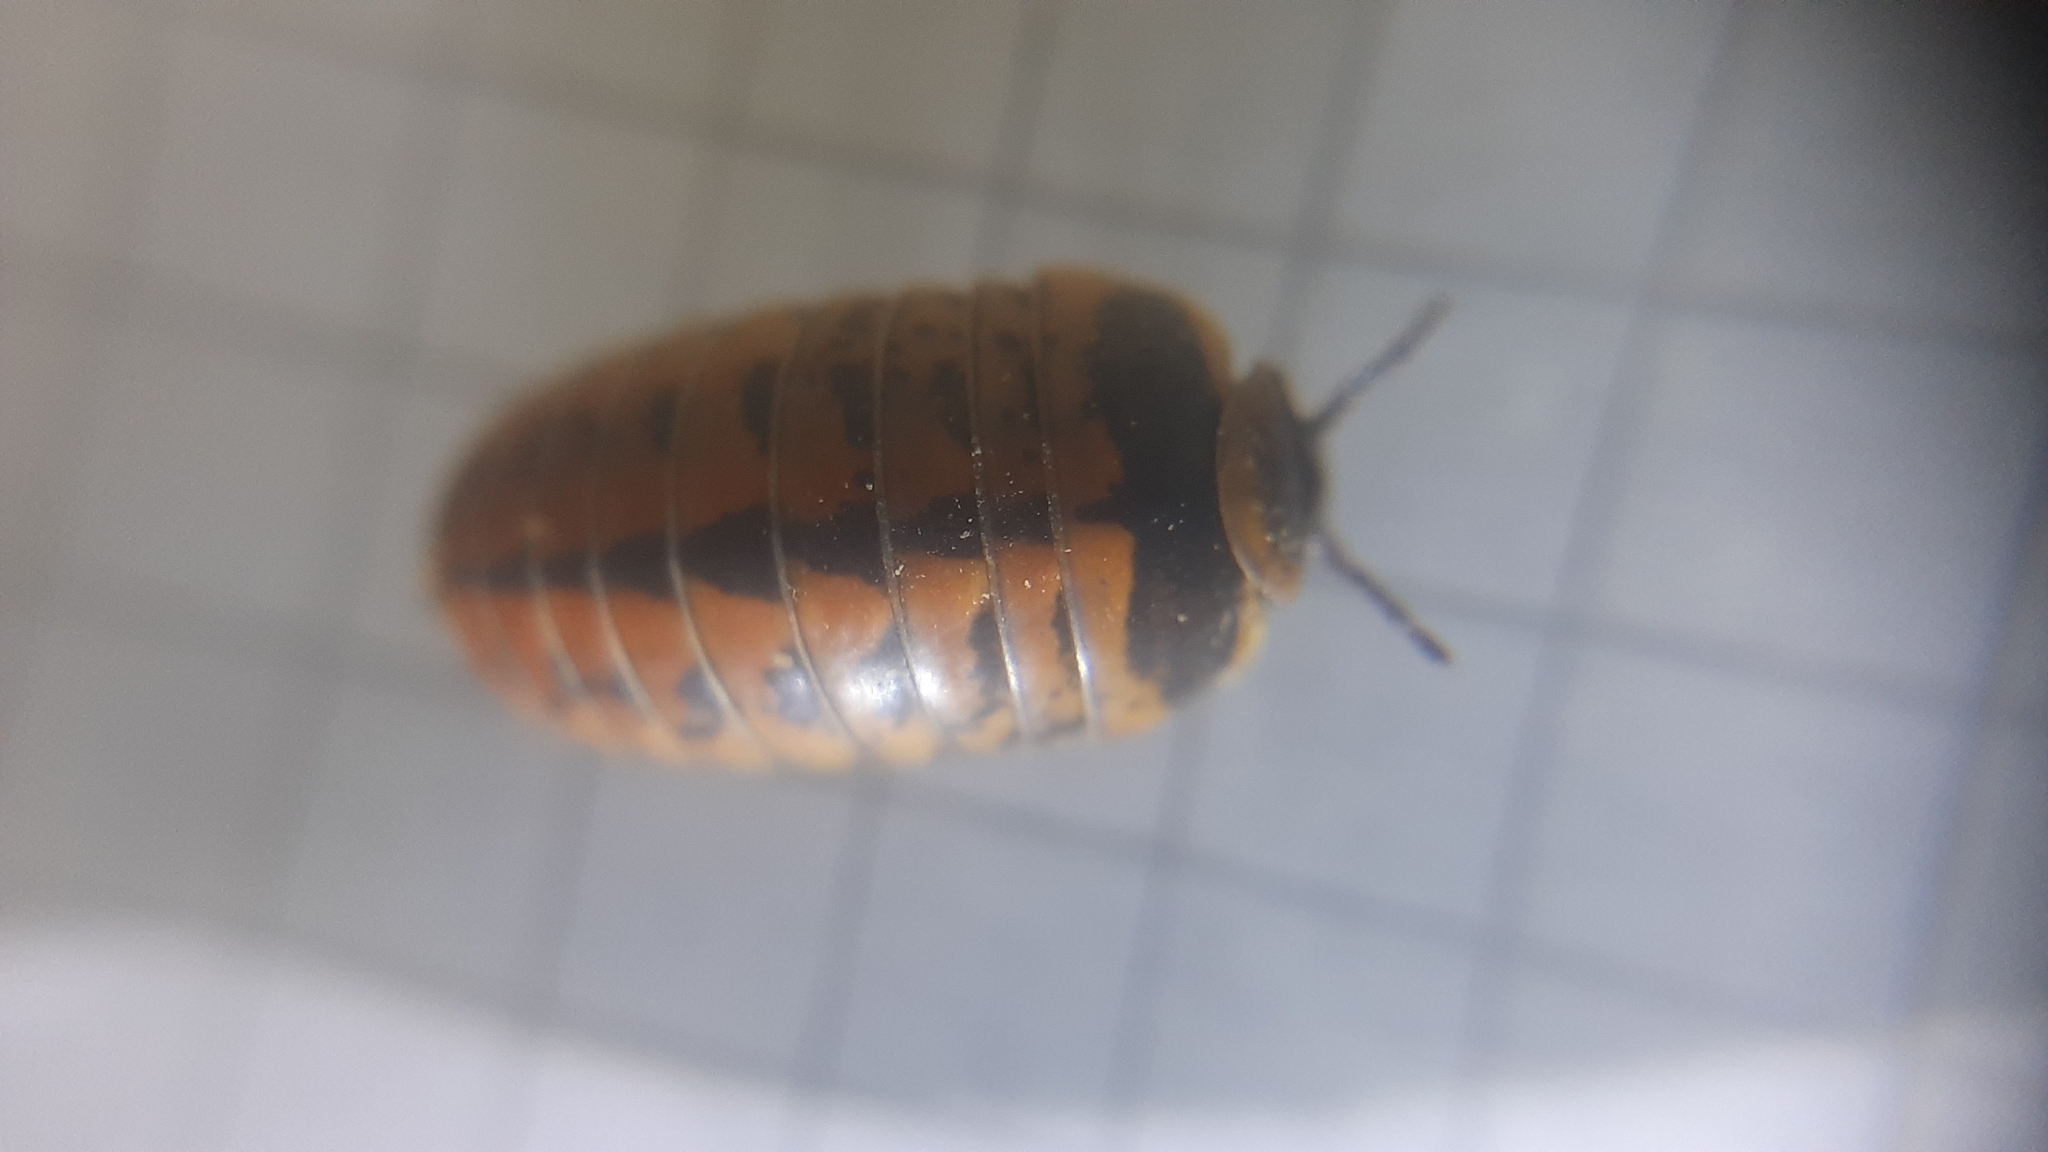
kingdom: Animalia
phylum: Arthropoda
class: Diplopoda
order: Glomerida
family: Glomeridae
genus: Glomeris
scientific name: Glomeris oblongoguttata
